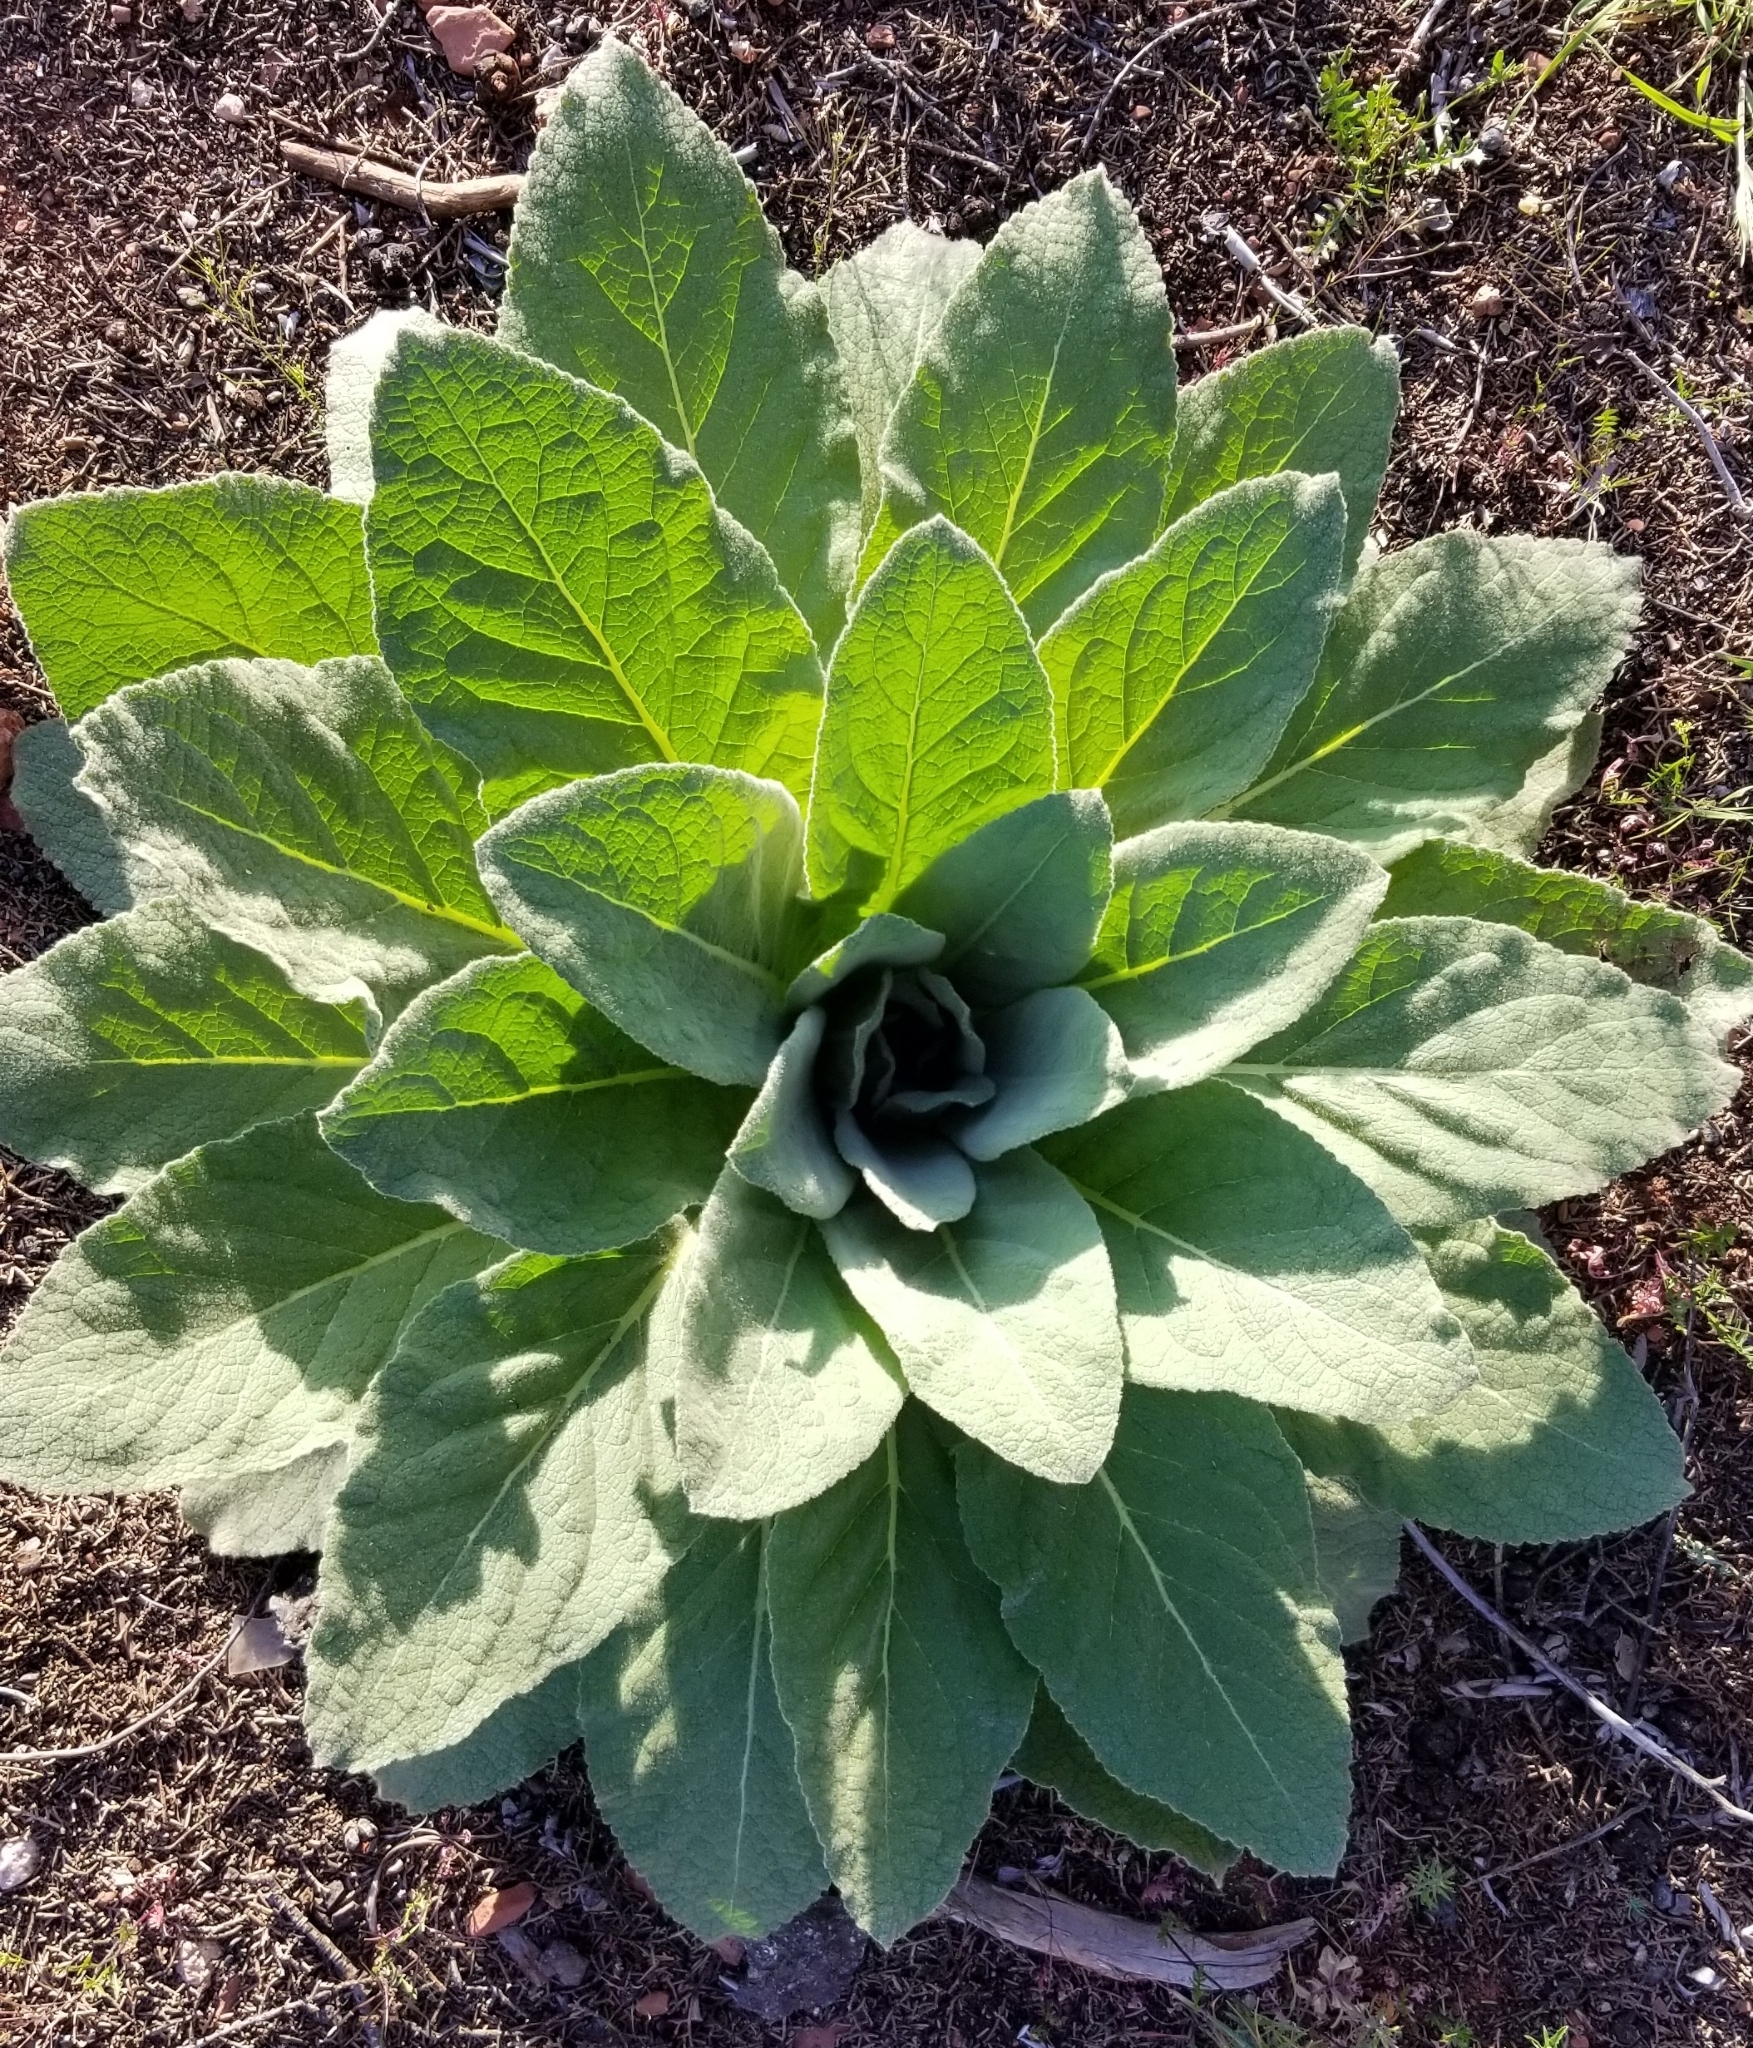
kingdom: Plantae
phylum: Tracheophyta
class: Magnoliopsida
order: Lamiales
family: Scrophulariaceae
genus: Verbascum
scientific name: Verbascum thapsus
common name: Common mullein
